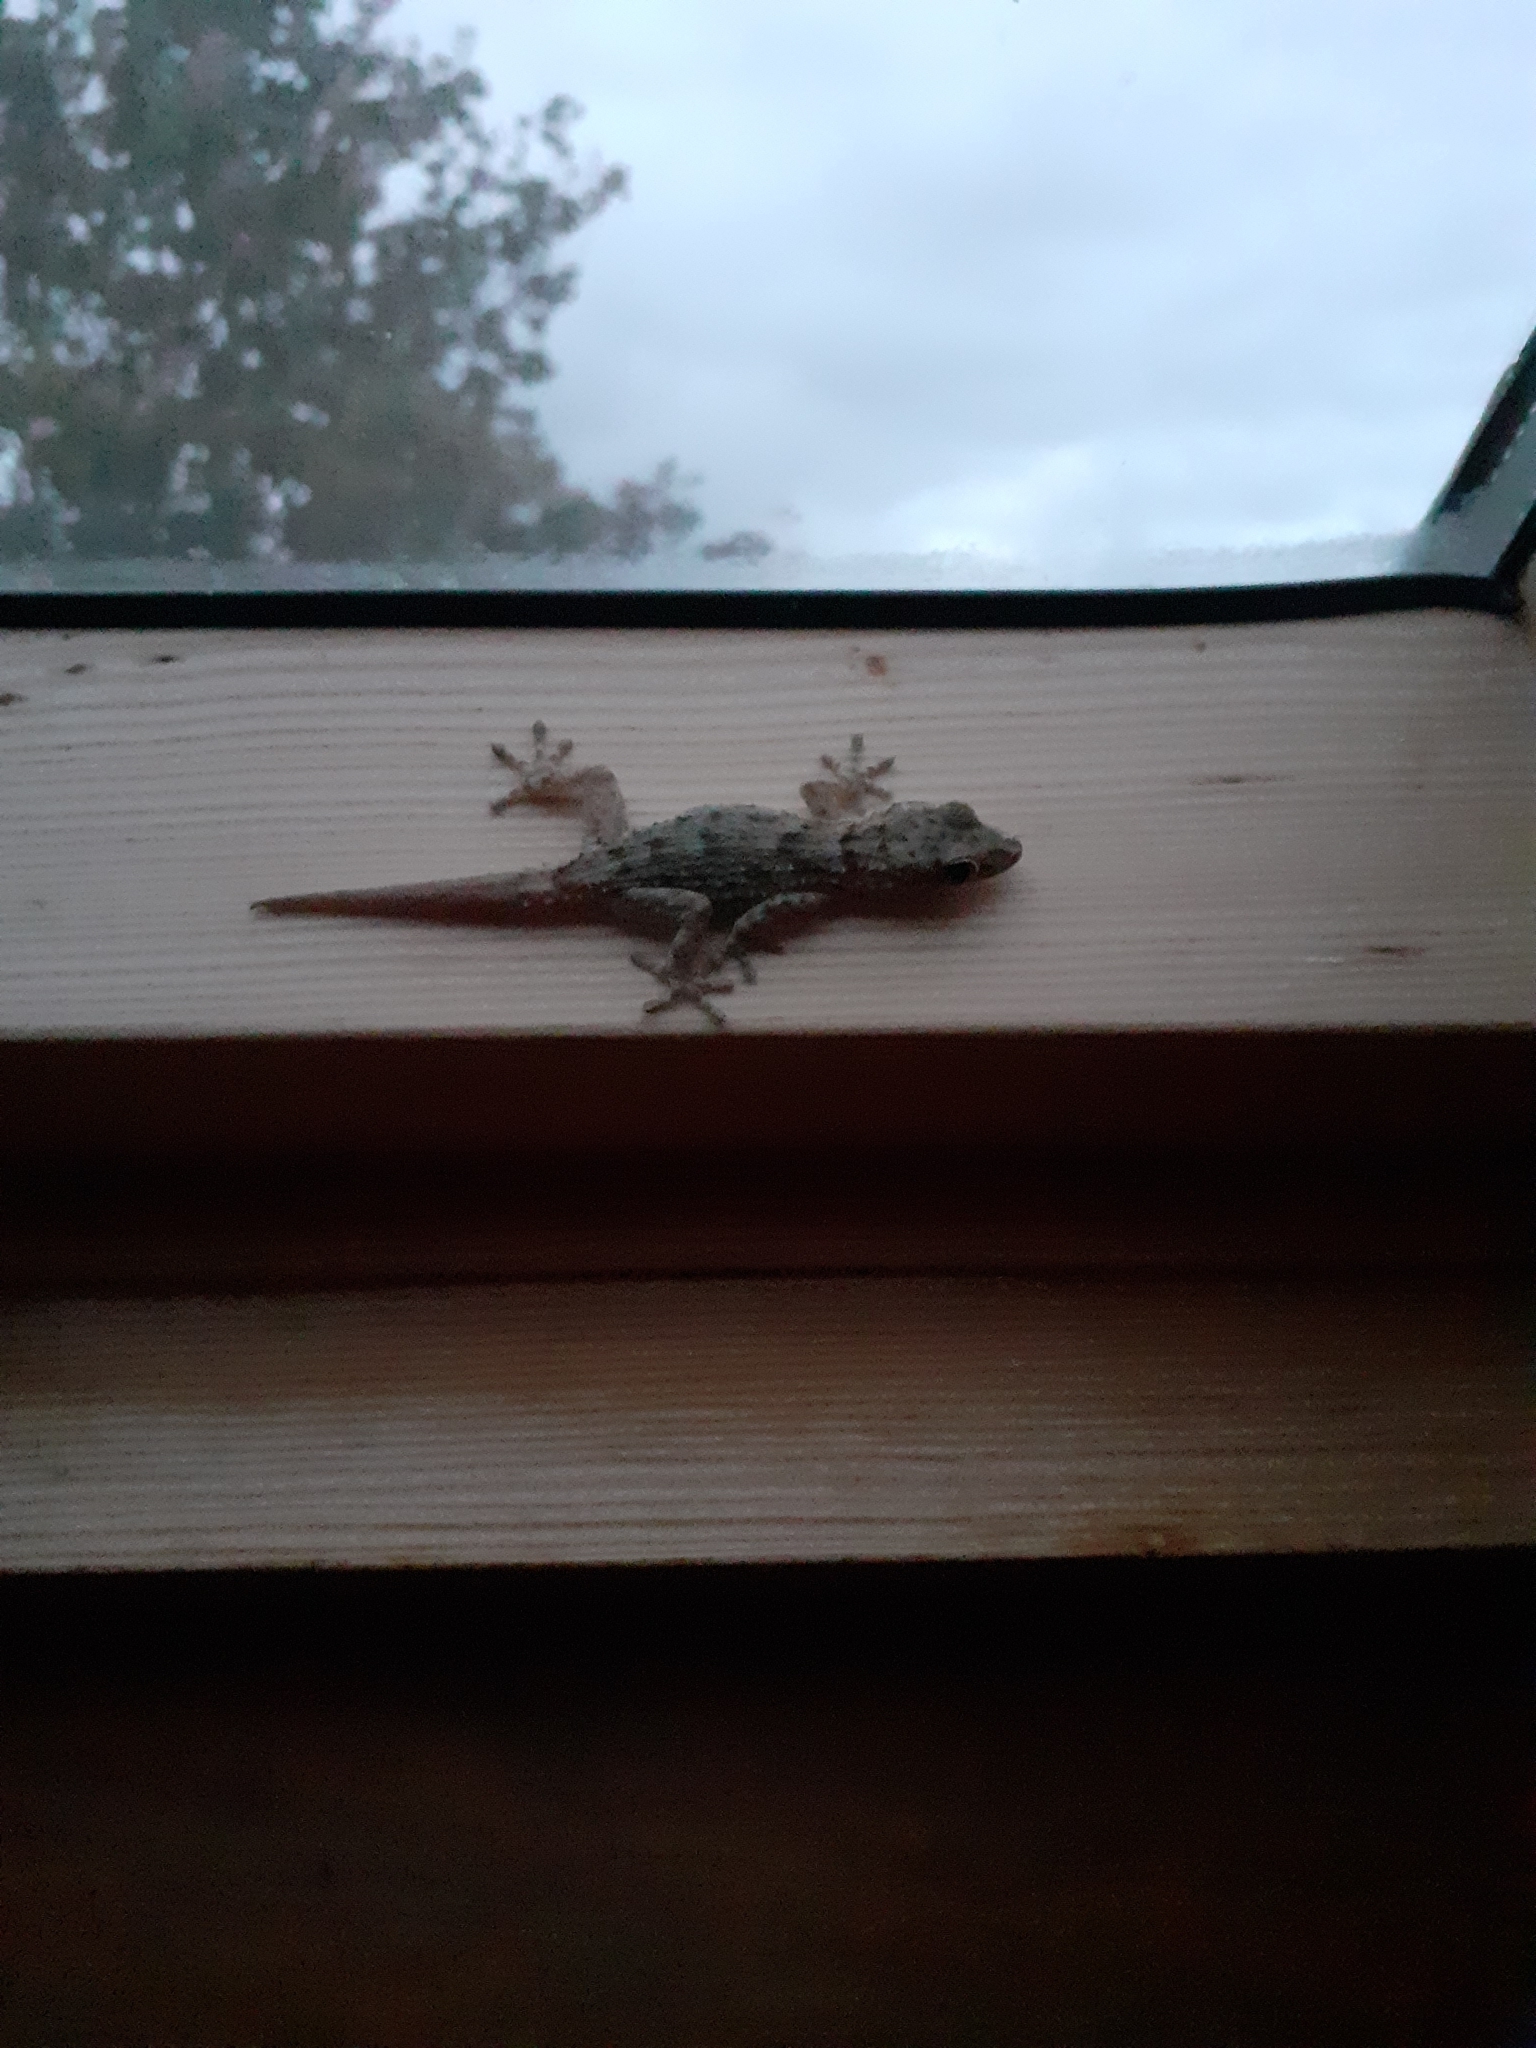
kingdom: Animalia
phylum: Chordata
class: Squamata
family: Phyllodactylidae
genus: Tarentola
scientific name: Tarentola delalandii
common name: Tenerife wall gecko
